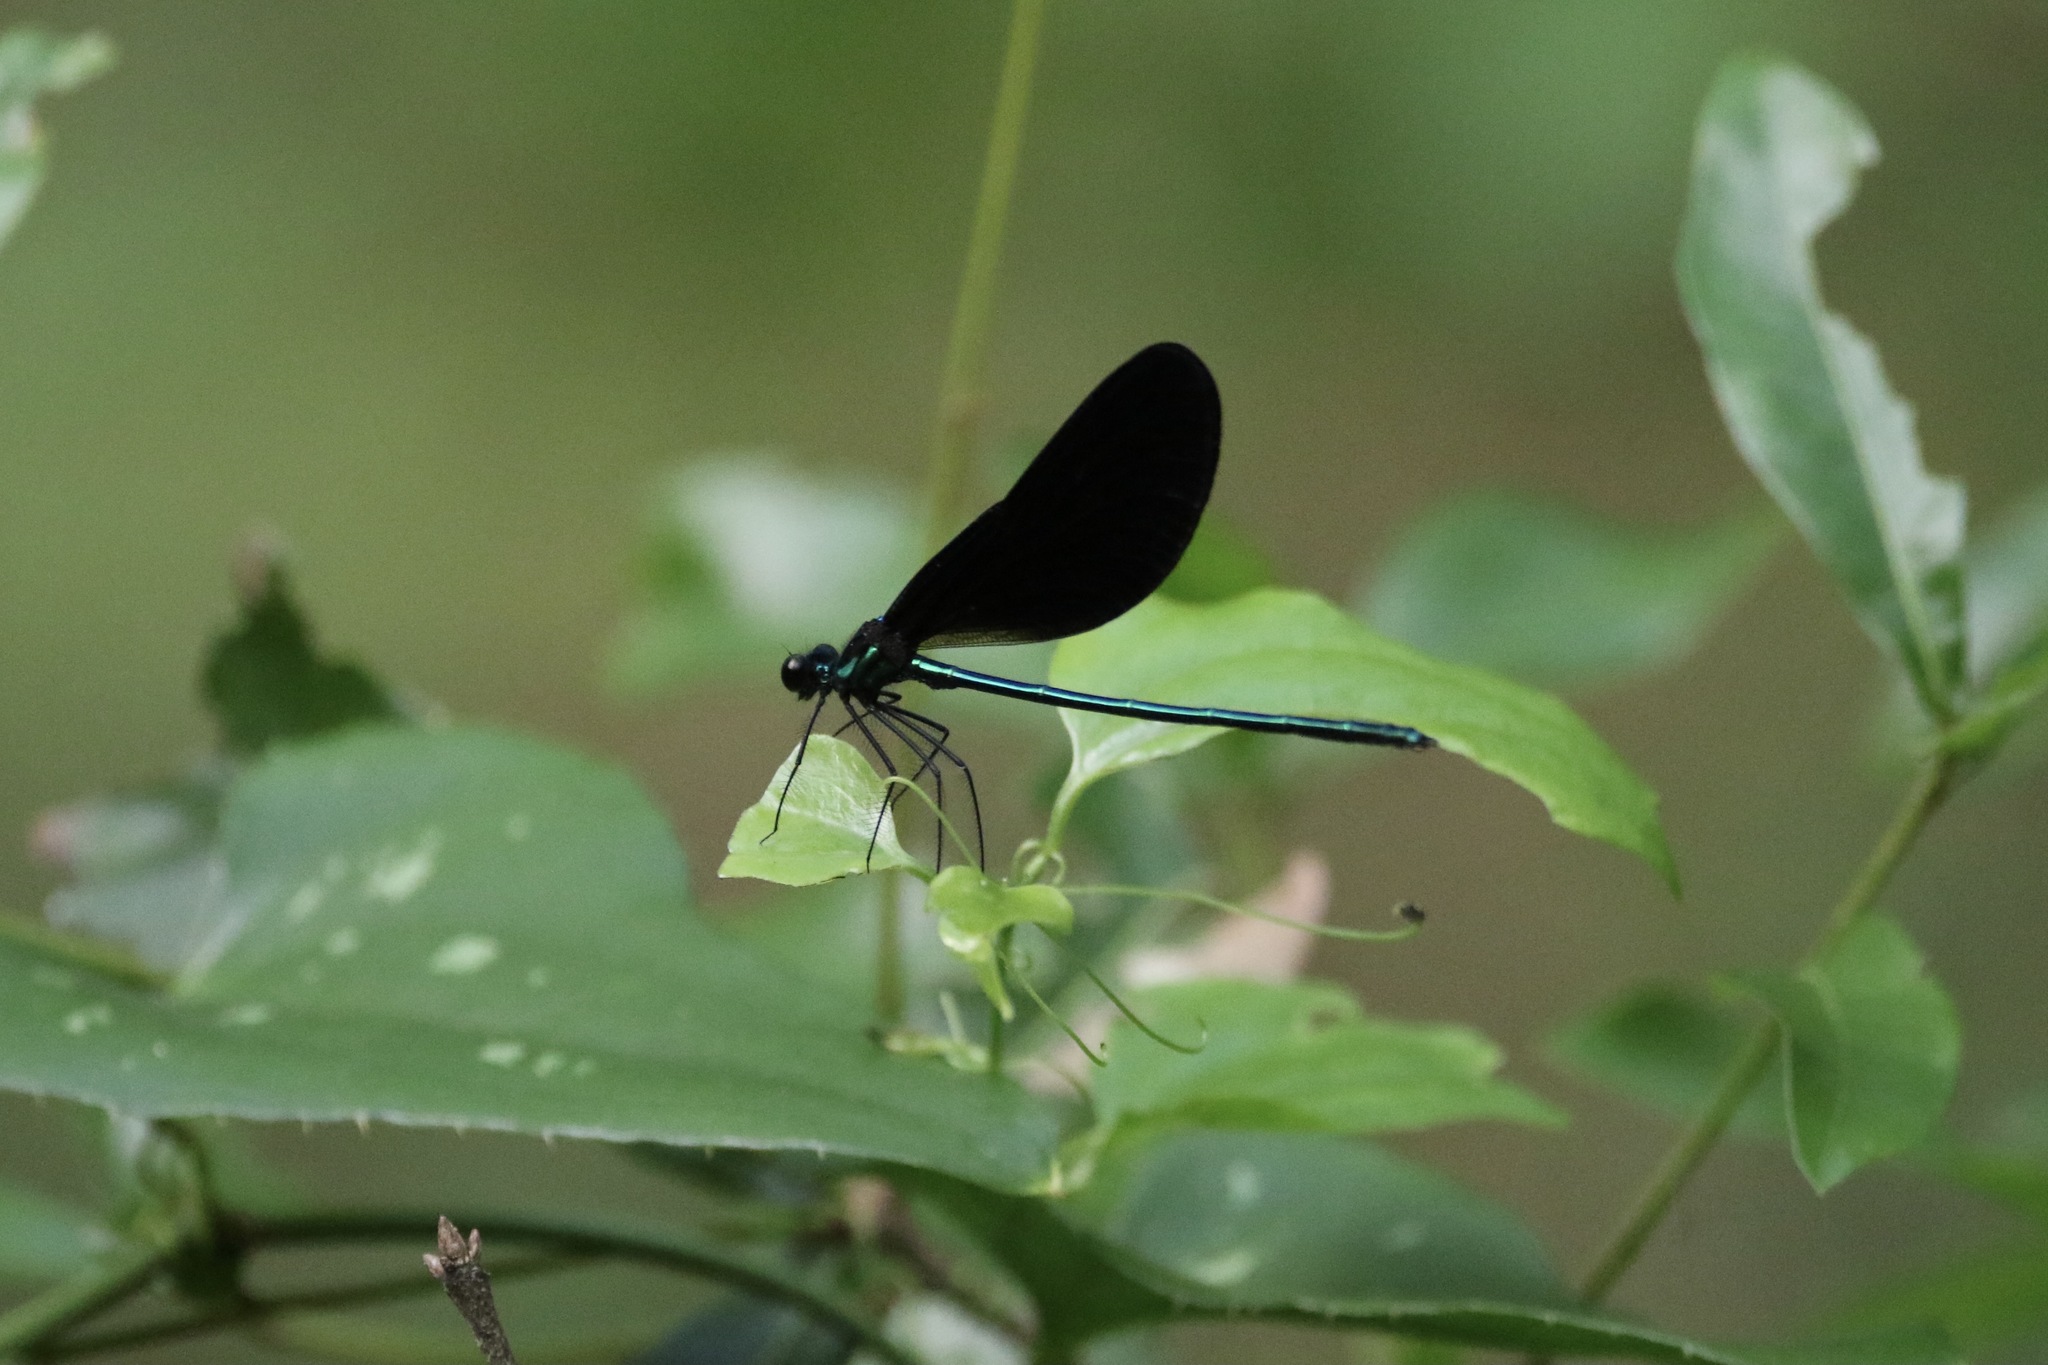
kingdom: Animalia
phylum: Arthropoda
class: Insecta
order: Odonata
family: Calopterygidae
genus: Calopteryx
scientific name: Calopteryx maculata
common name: Ebony jewelwing
